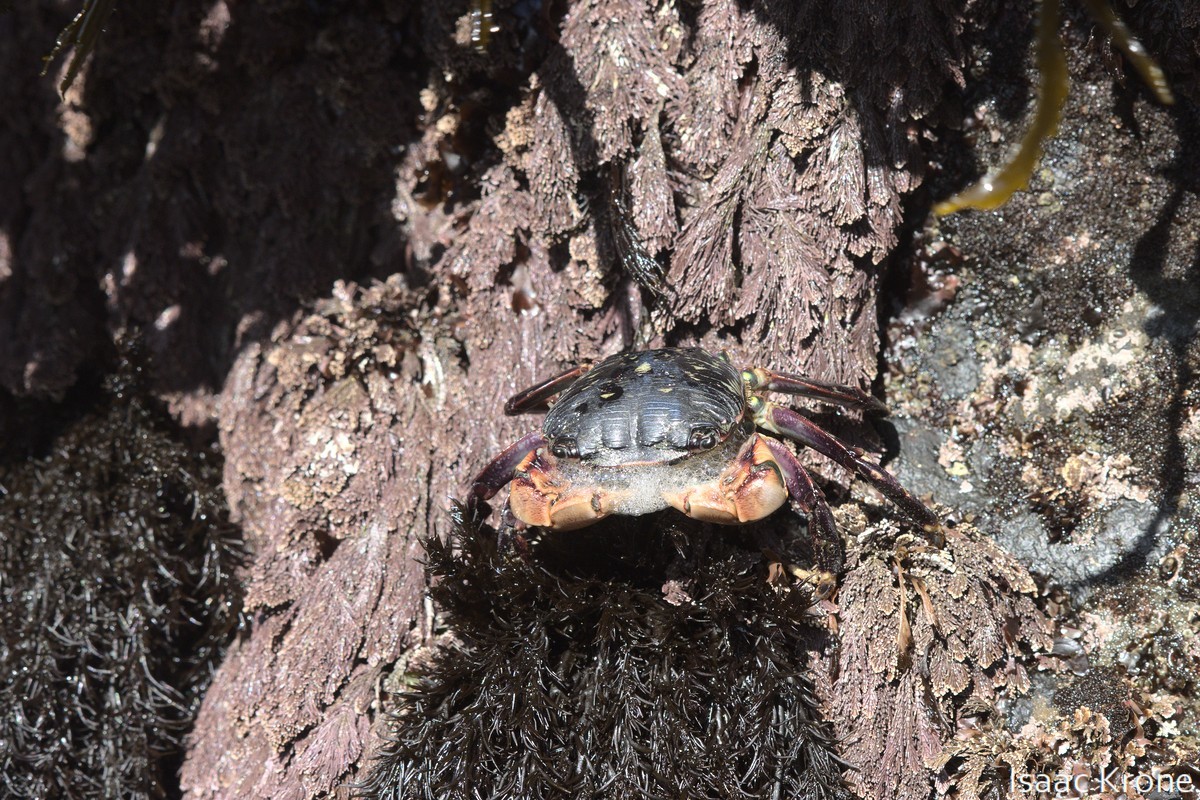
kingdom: Animalia
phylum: Arthropoda
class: Malacostraca
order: Decapoda
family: Grapsidae
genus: Pachygrapsus
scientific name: Pachygrapsus crassipes
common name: Striped shore crab
